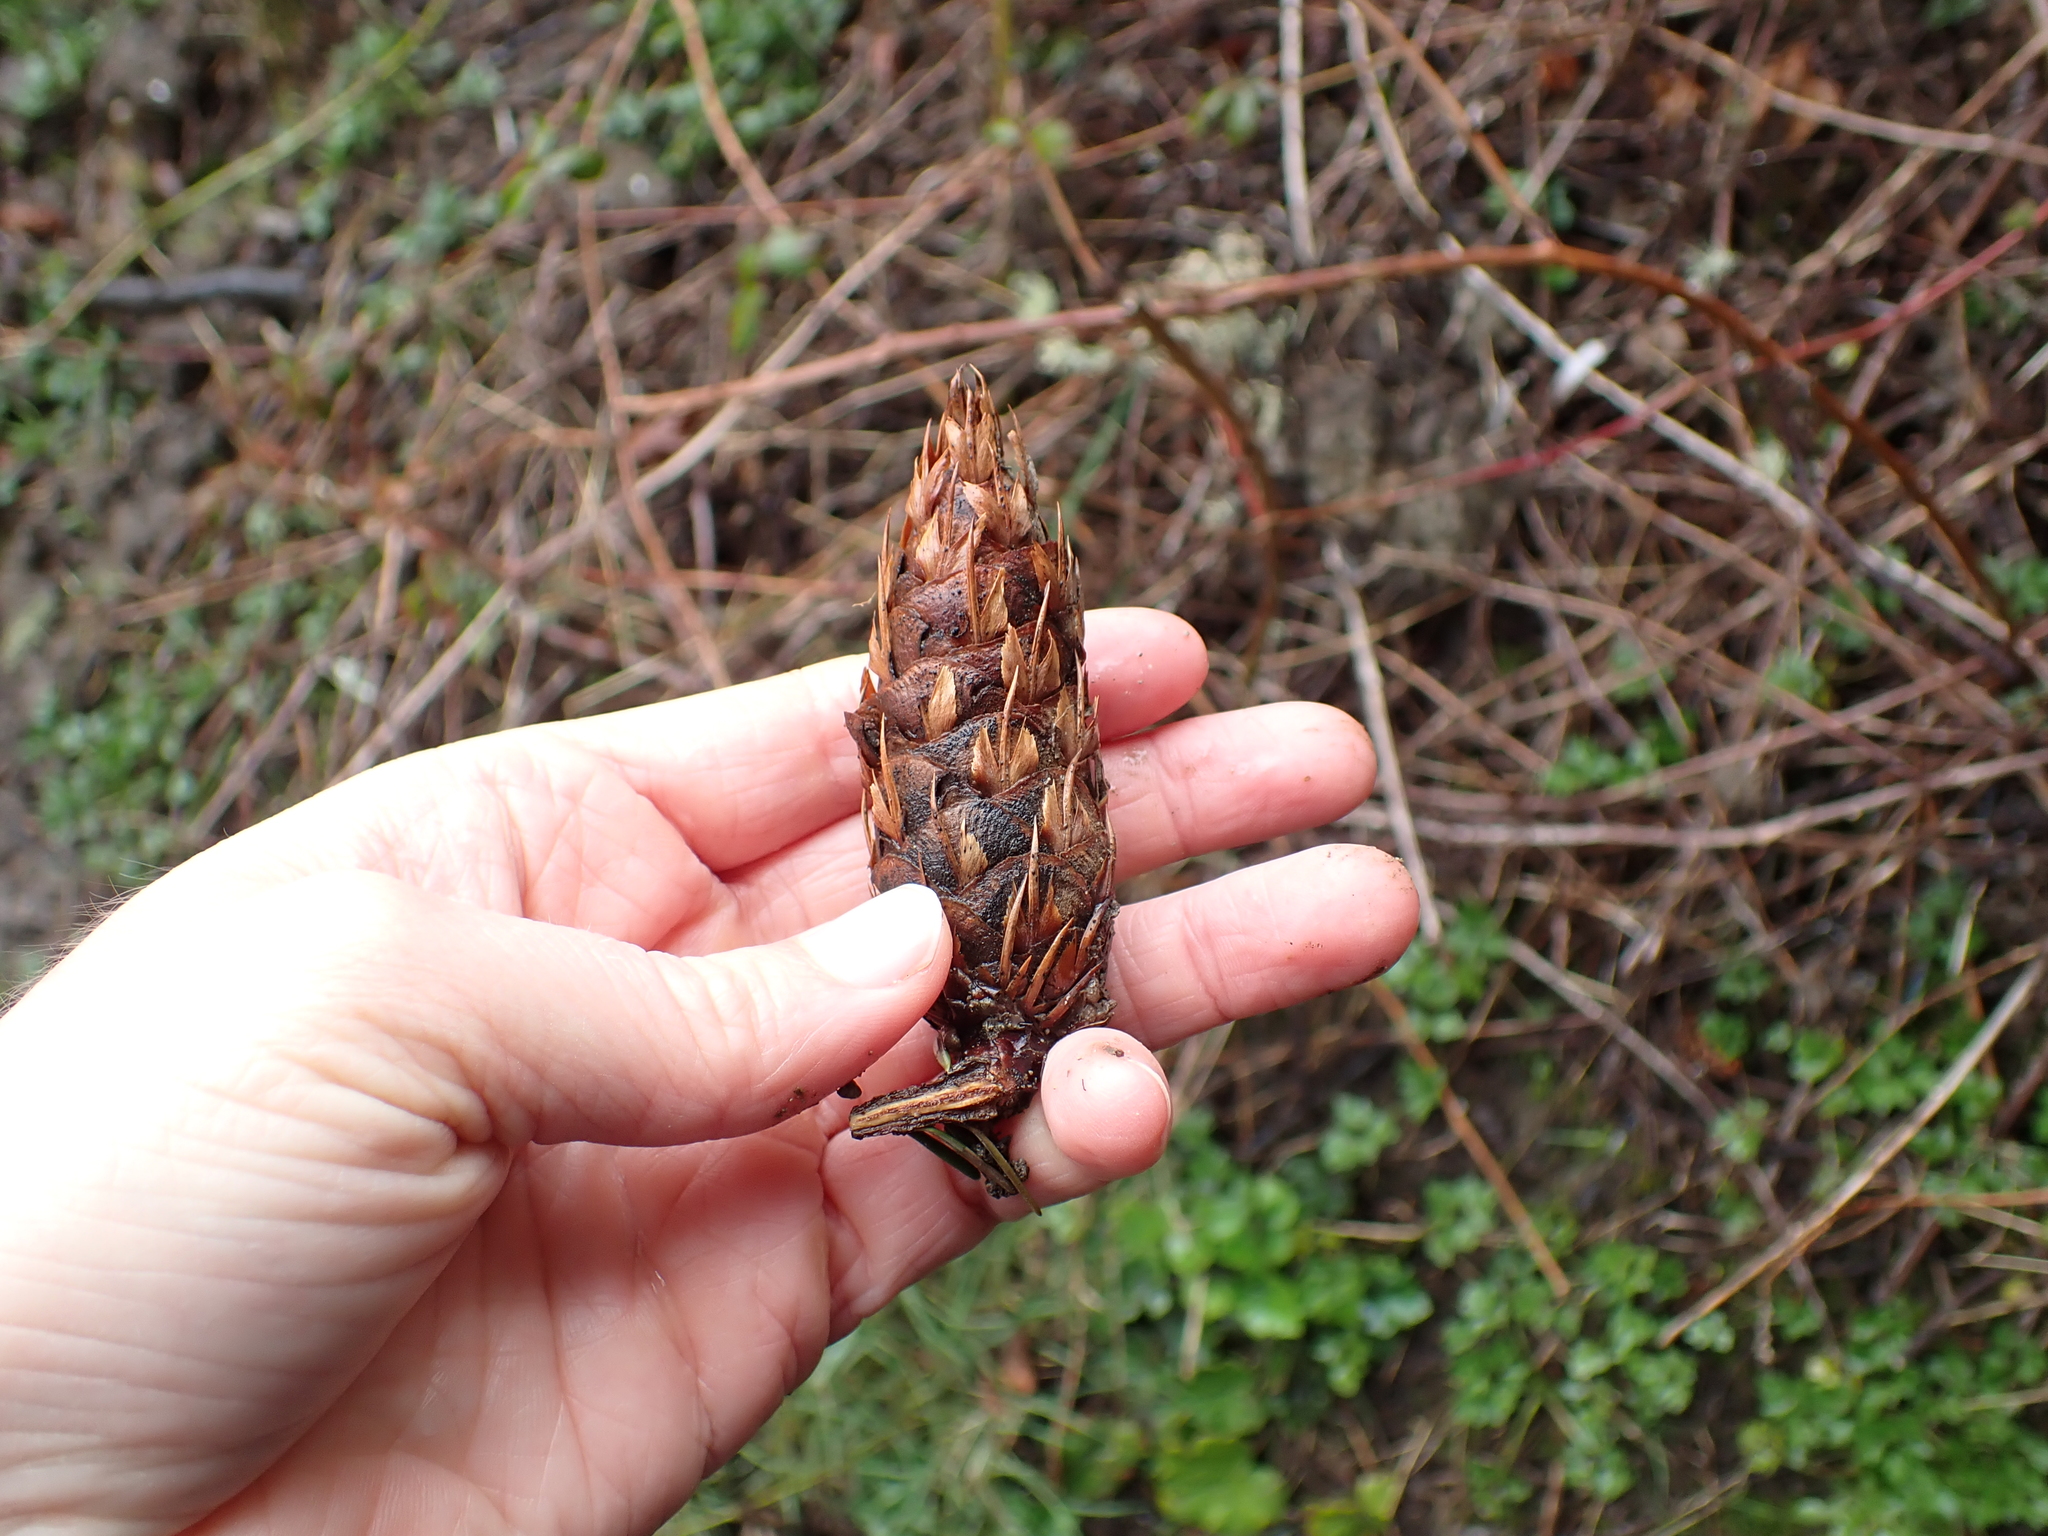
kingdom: Plantae
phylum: Tracheophyta
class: Pinopsida
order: Pinales
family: Pinaceae
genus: Pseudotsuga
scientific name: Pseudotsuga menziesii
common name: Douglas fir
